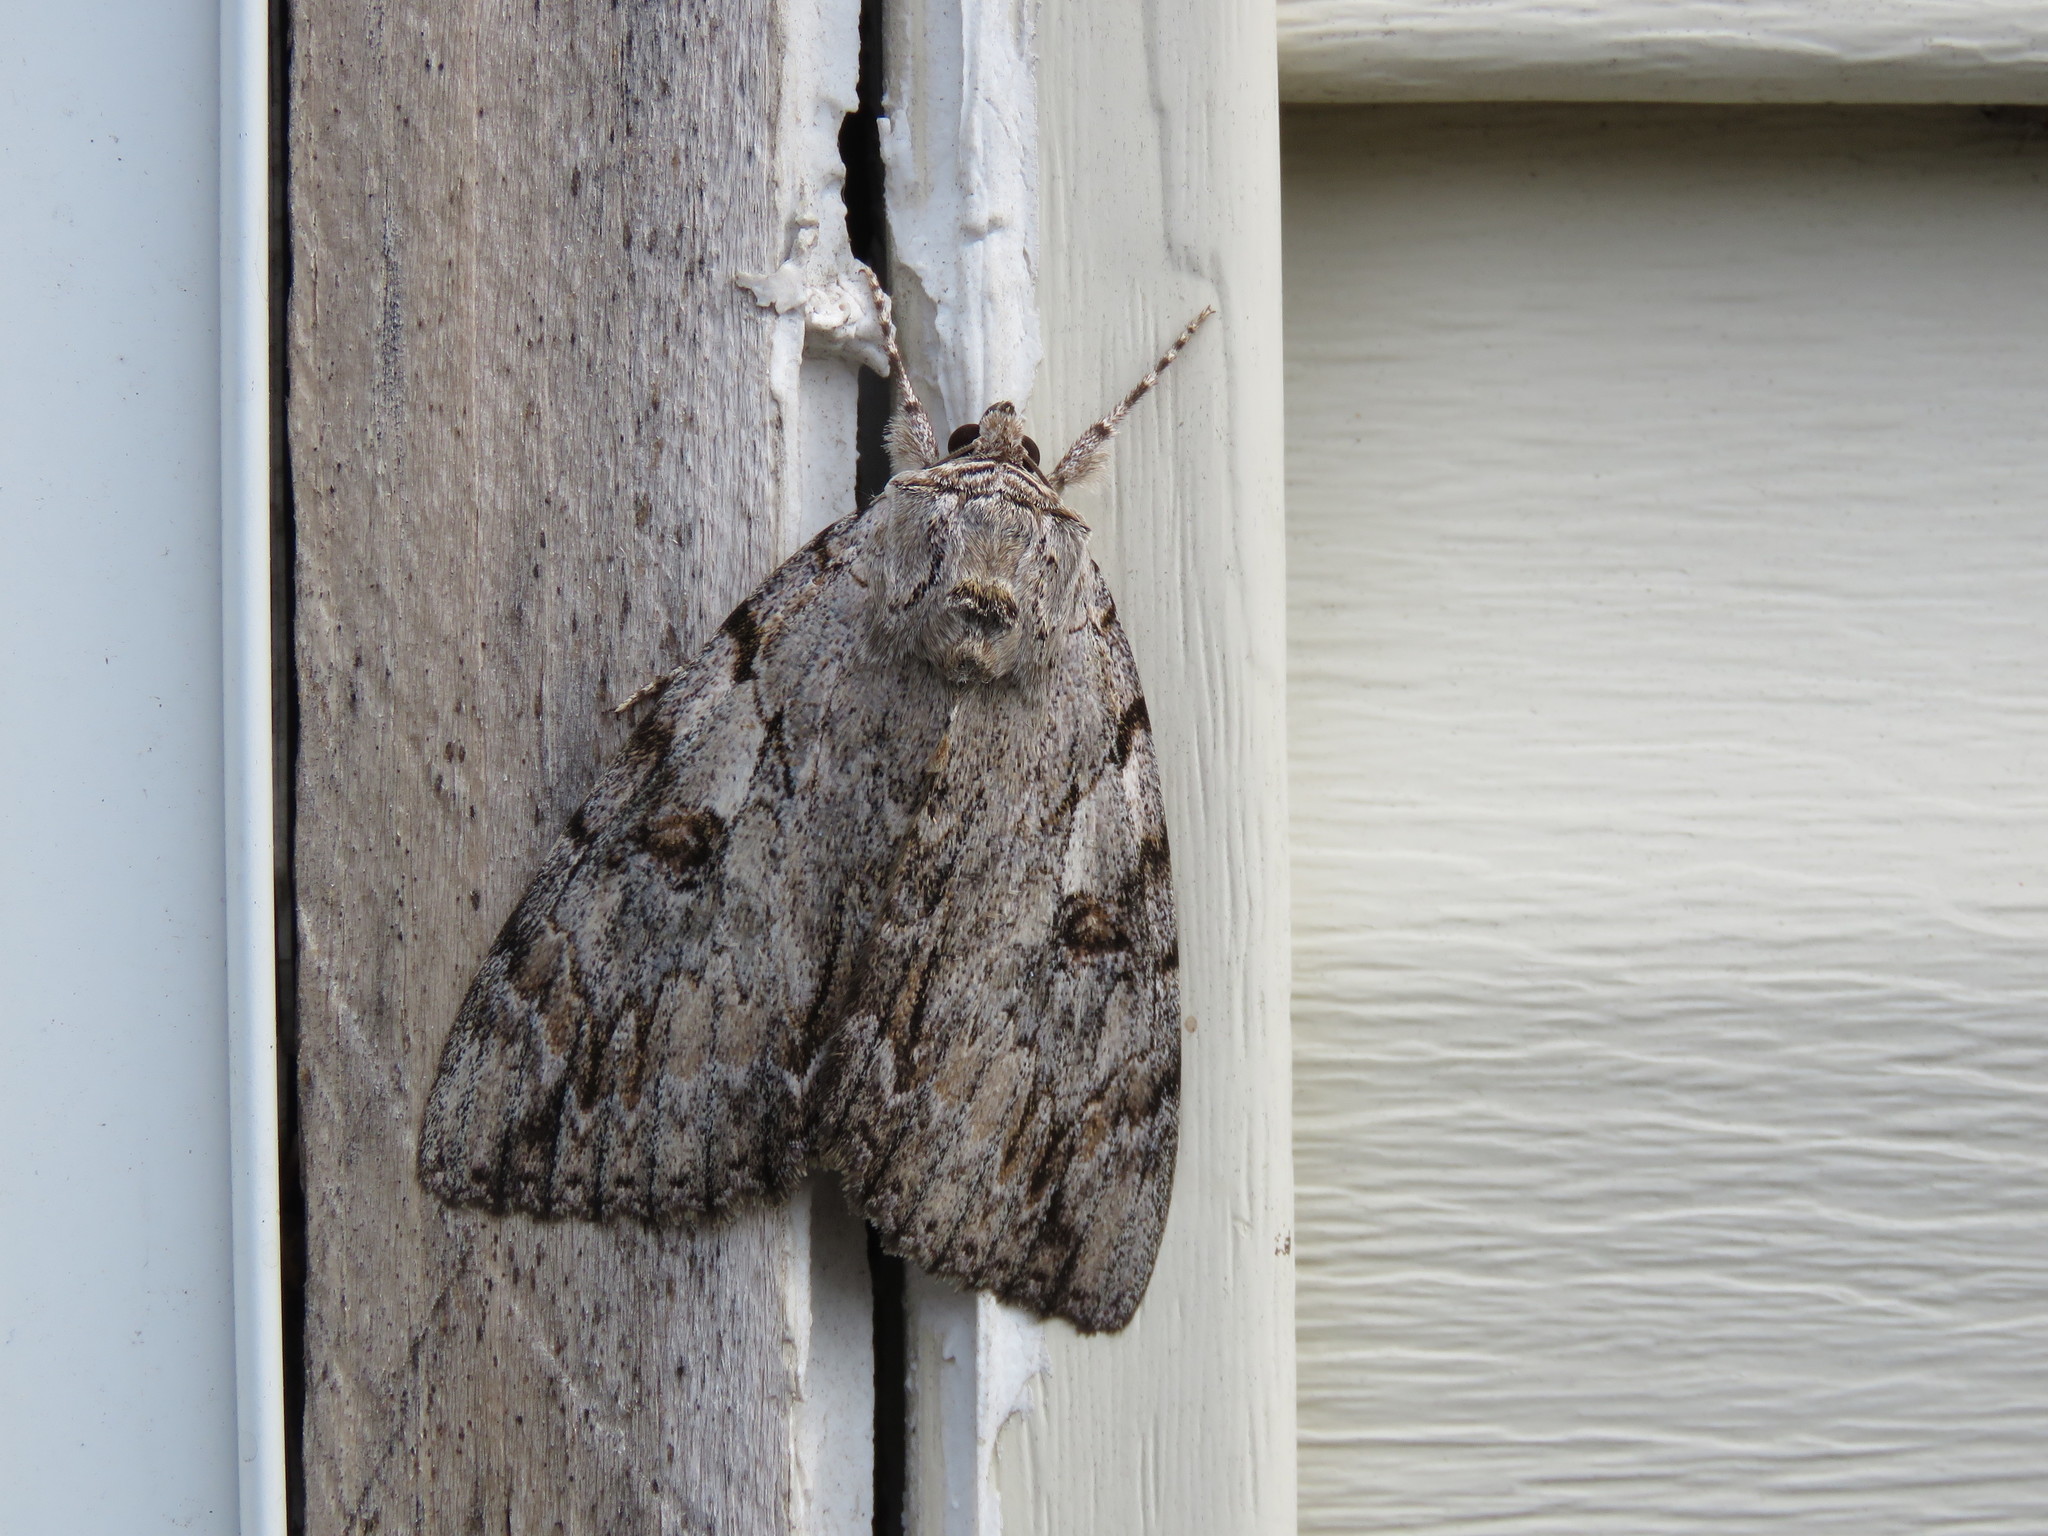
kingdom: Animalia
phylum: Arthropoda
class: Insecta
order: Lepidoptera
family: Erebidae
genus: Catocala
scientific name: Catocala subnata
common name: Youthful underwing
